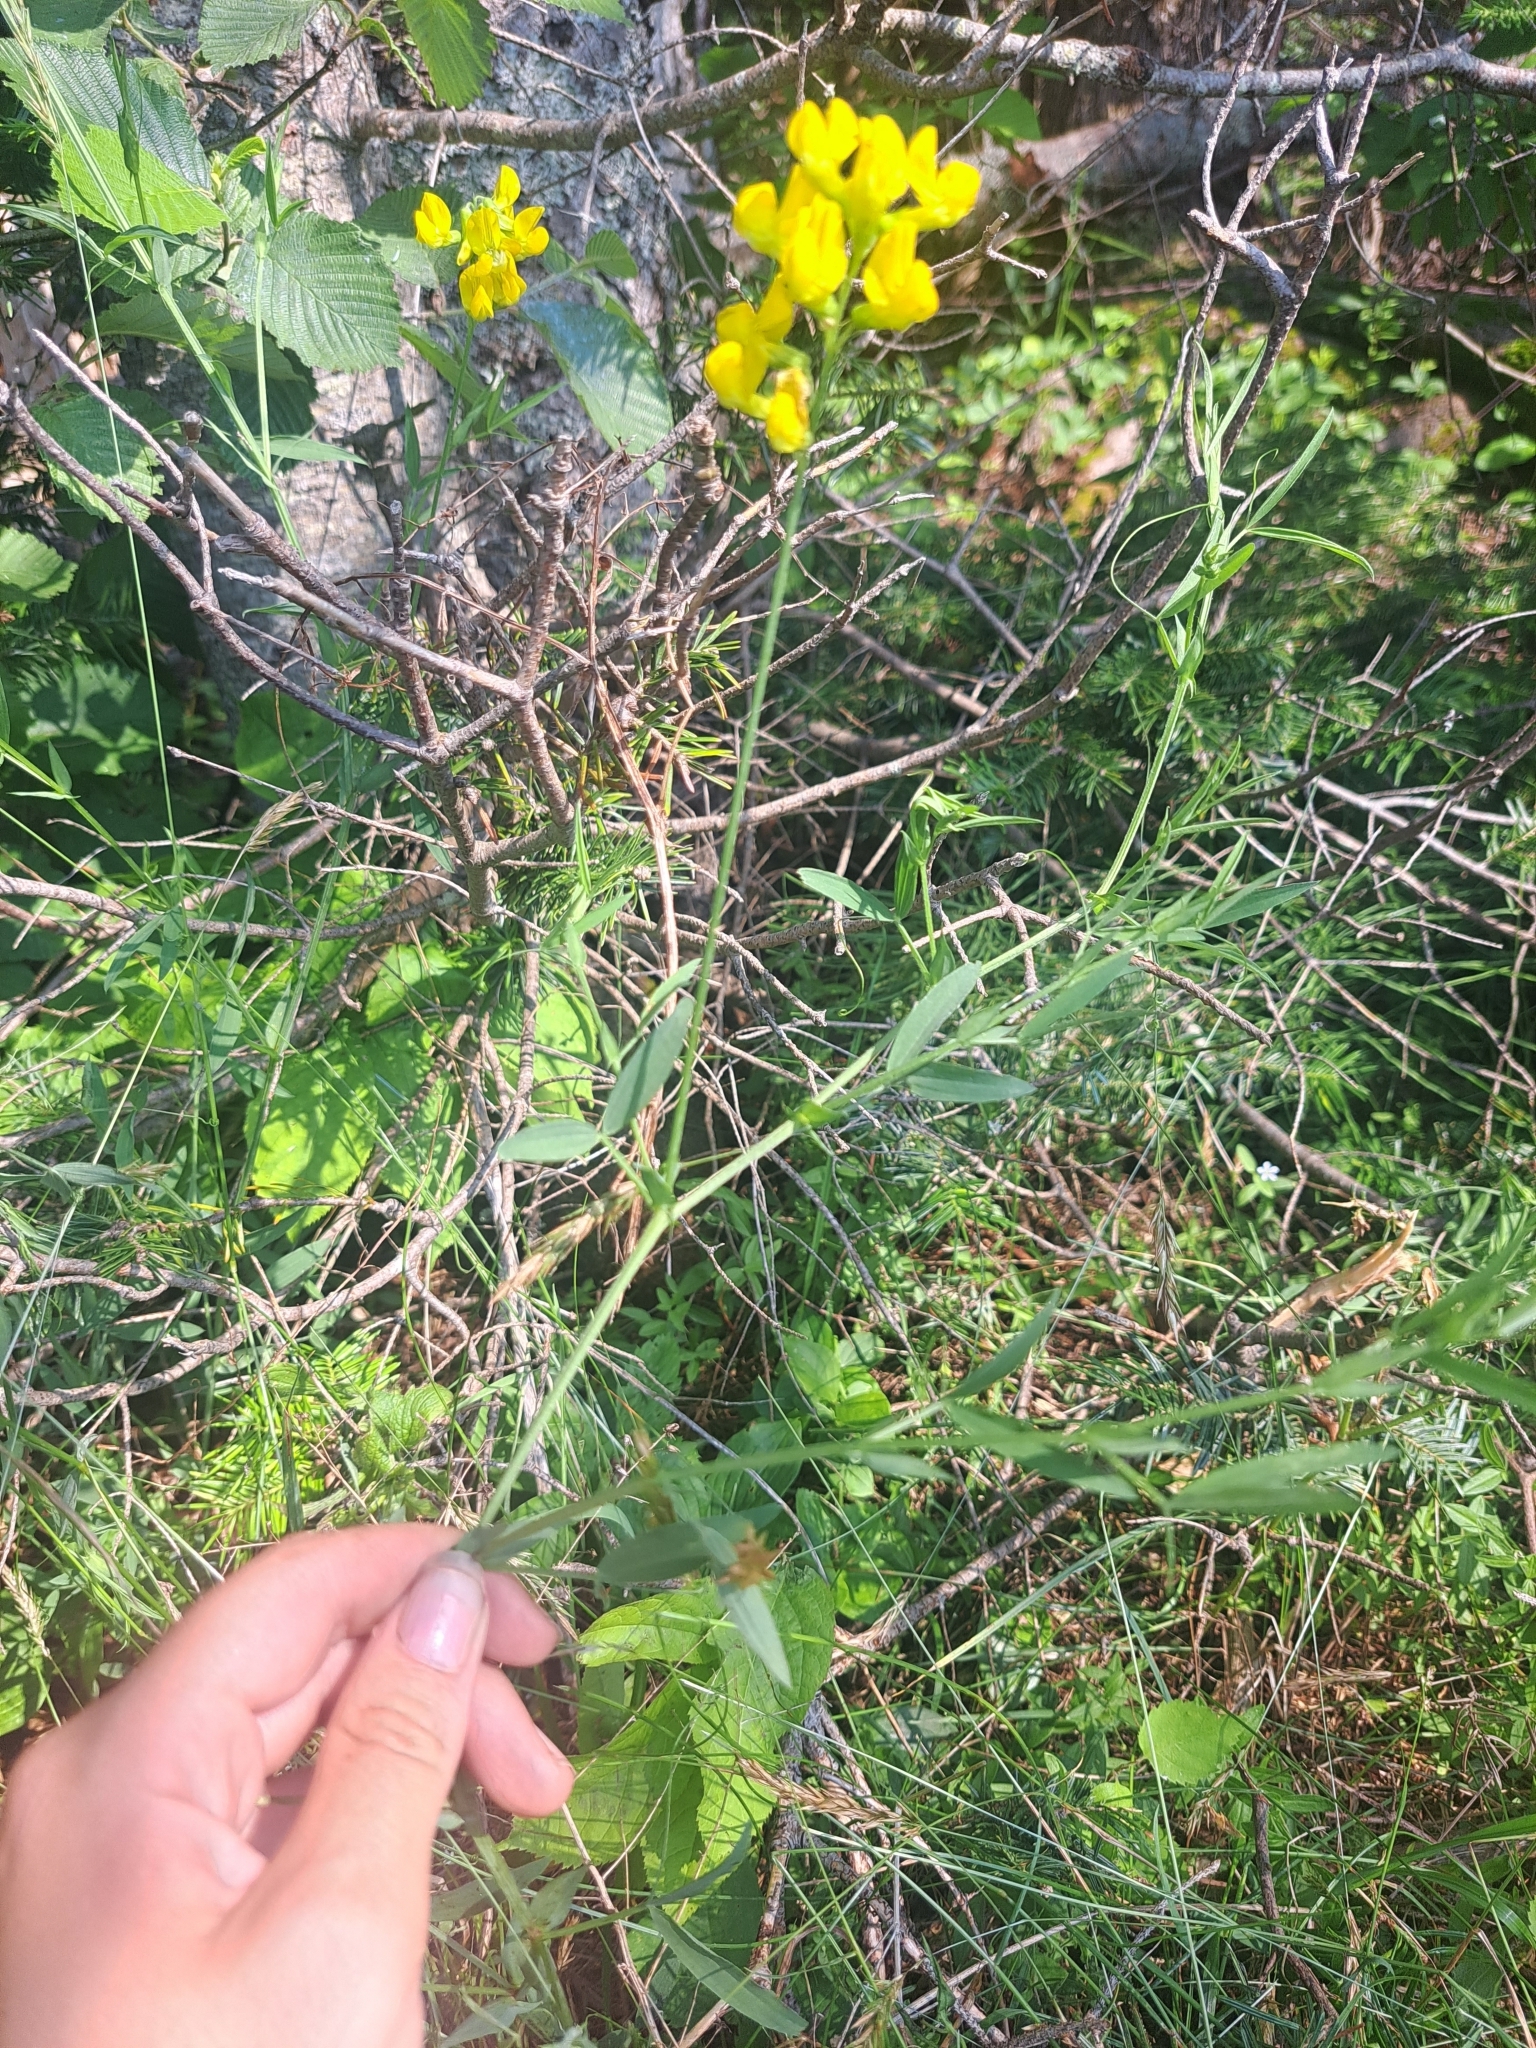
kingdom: Plantae
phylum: Tracheophyta
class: Magnoliopsida
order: Fabales
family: Fabaceae
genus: Lathyrus
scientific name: Lathyrus pratensis
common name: Meadow vetchling
